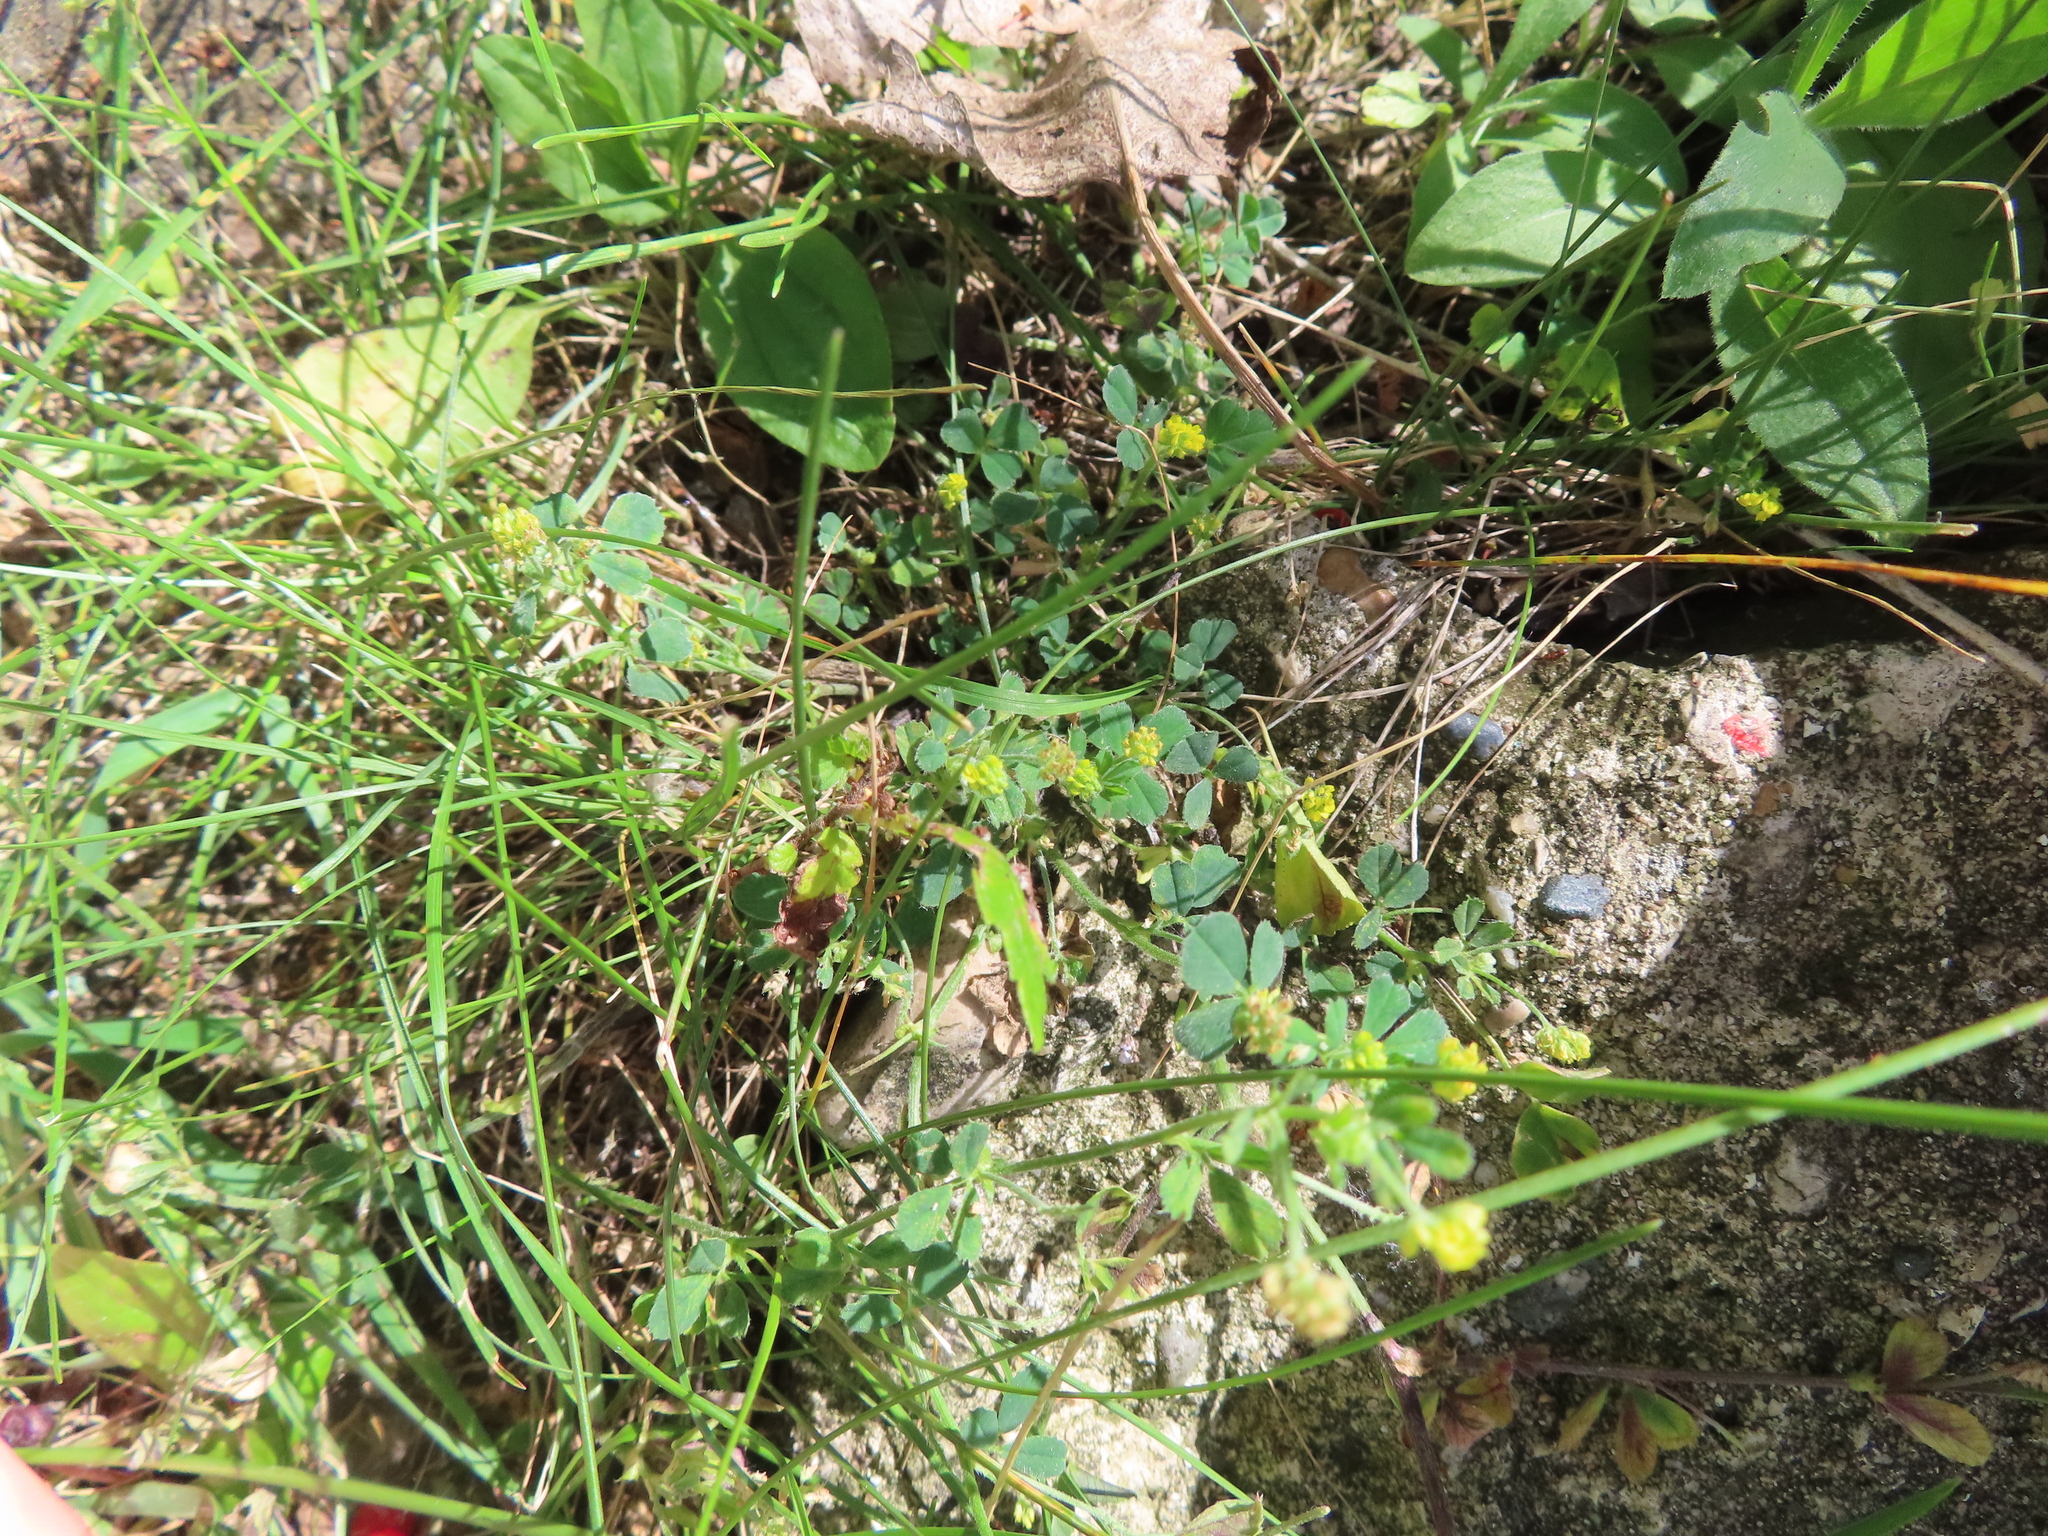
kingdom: Plantae
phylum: Tracheophyta
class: Magnoliopsida
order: Fabales
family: Fabaceae
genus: Medicago
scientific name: Medicago lupulina
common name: Black medick
